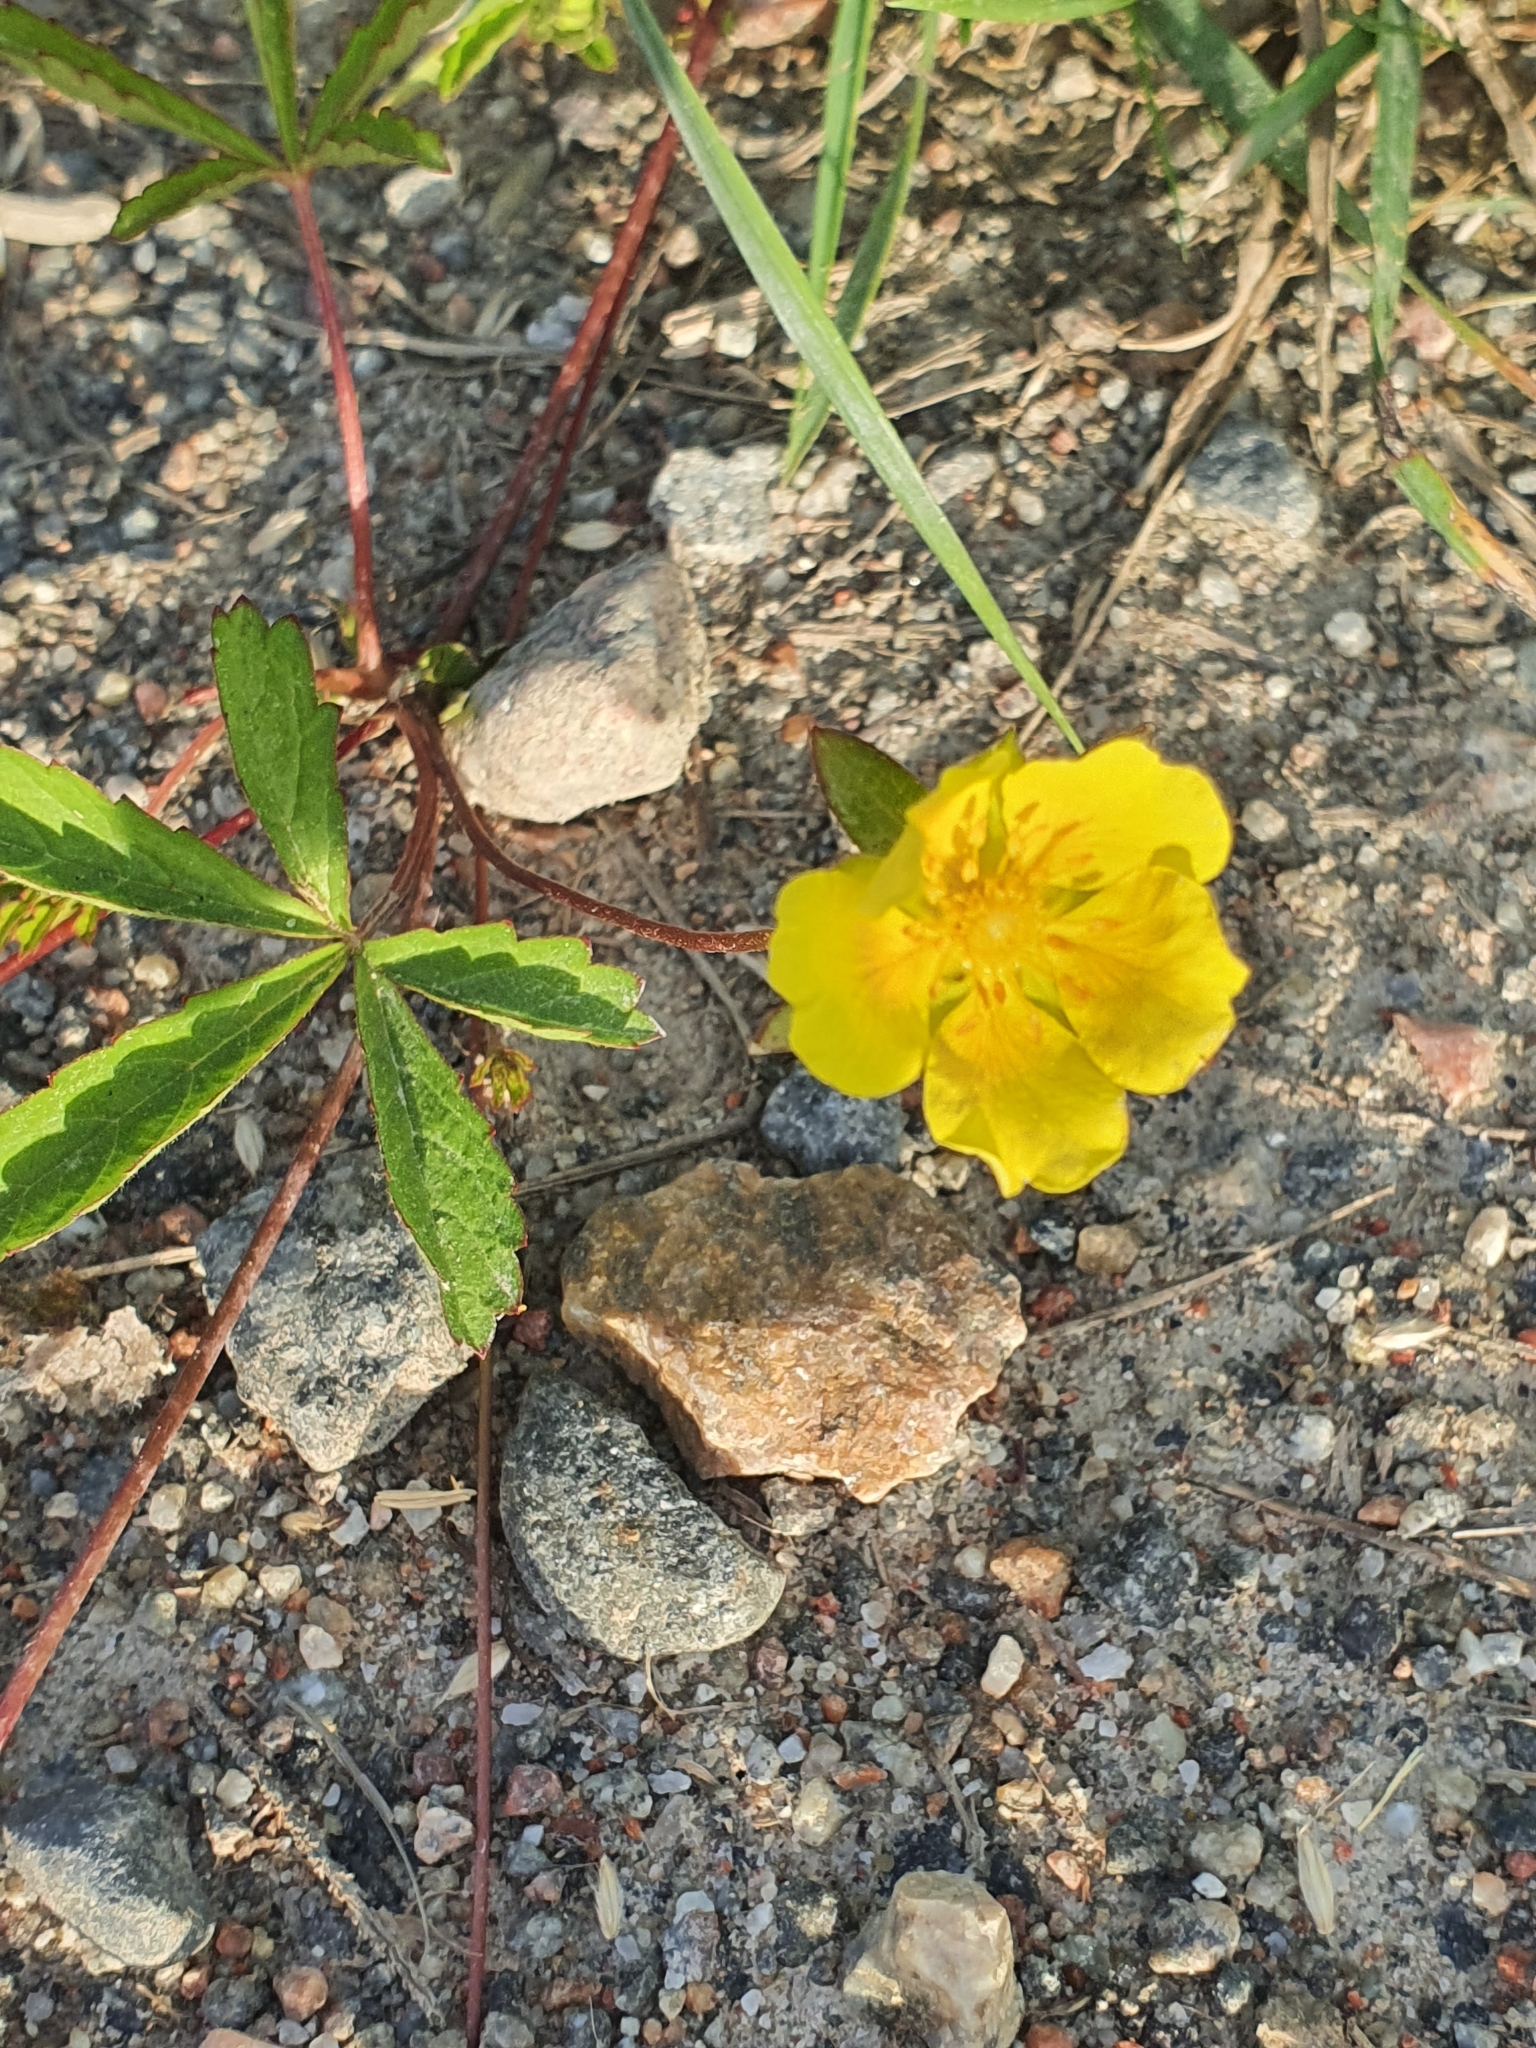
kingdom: Plantae
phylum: Tracheophyta
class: Magnoliopsida
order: Rosales
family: Rosaceae
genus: Potentilla
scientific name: Potentilla reptans
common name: Creeping cinquefoil
